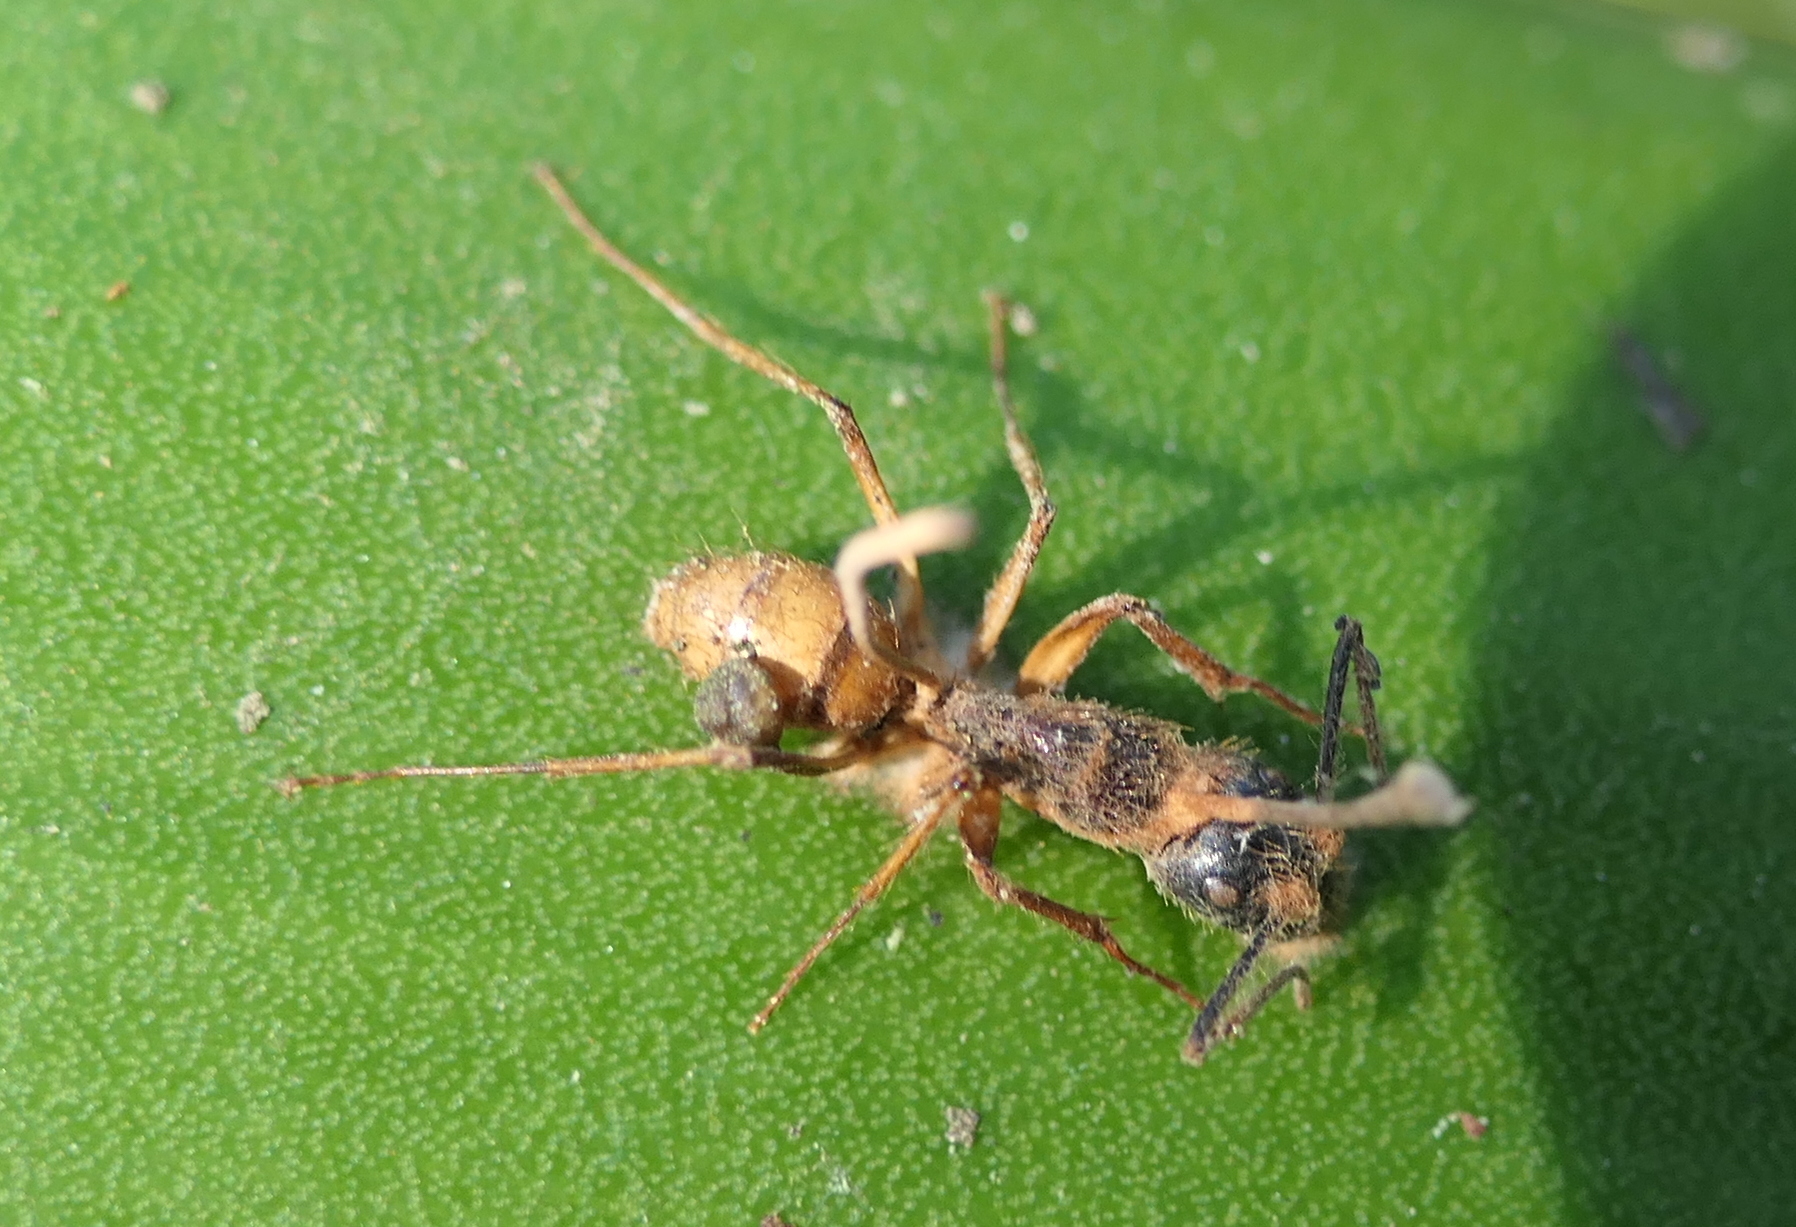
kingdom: Animalia
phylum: Arthropoda
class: Insecta
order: Hymenoptera
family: Formicidae
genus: Camponotus
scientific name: Camponotus atriceps
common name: Florida carpenter ant
